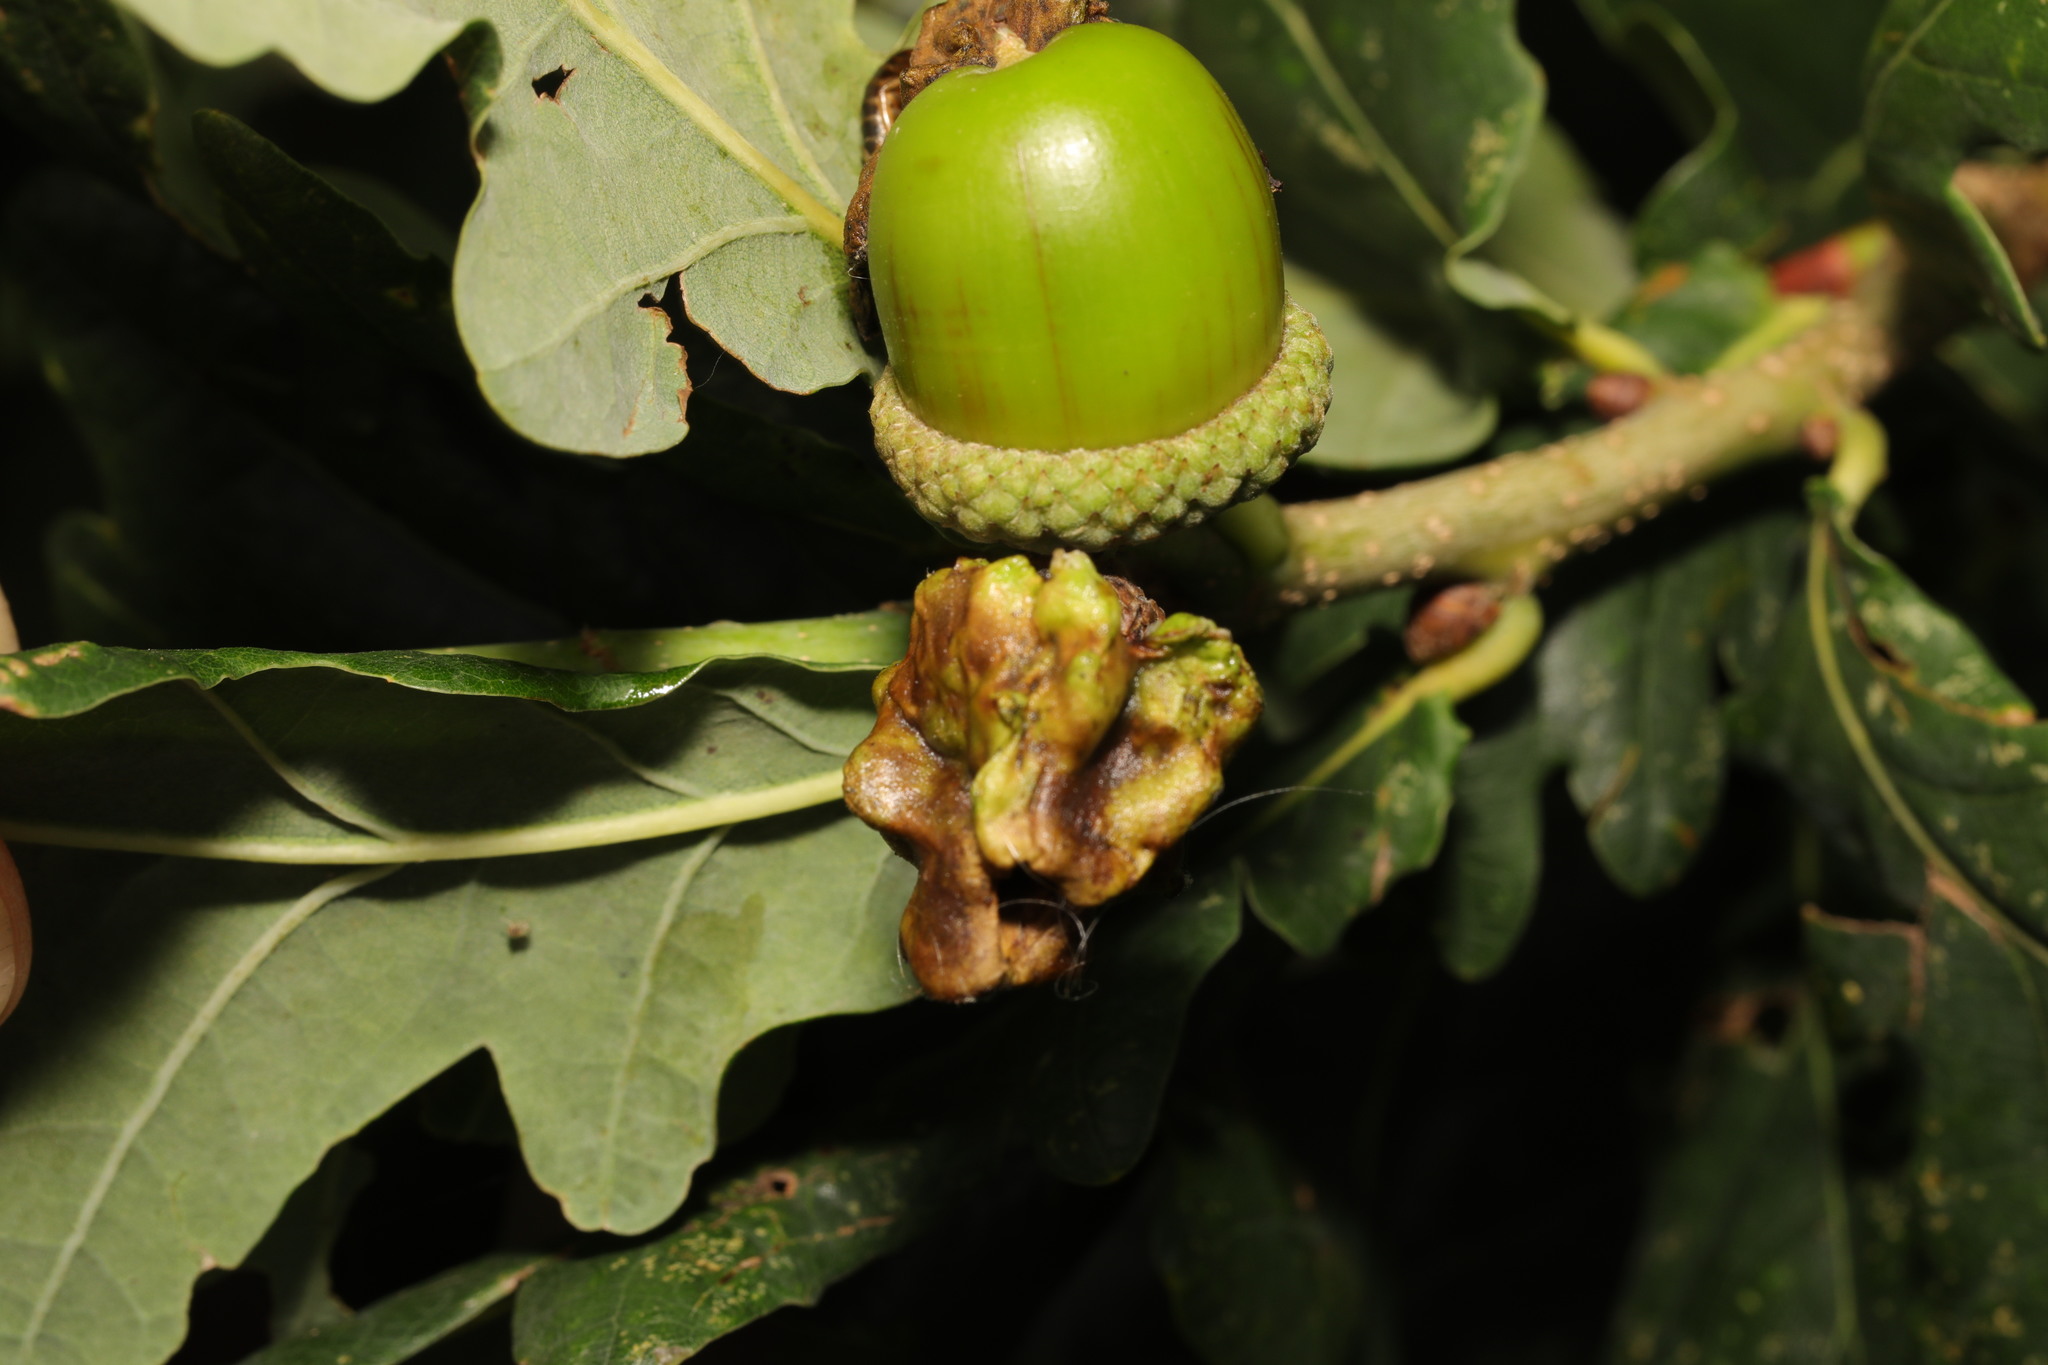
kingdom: Animalia
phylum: Arthropoda
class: Insecta
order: Hymenoptera
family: Cynipidae
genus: Andricus
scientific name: Andricus quercuscalicis
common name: Knopper gall
